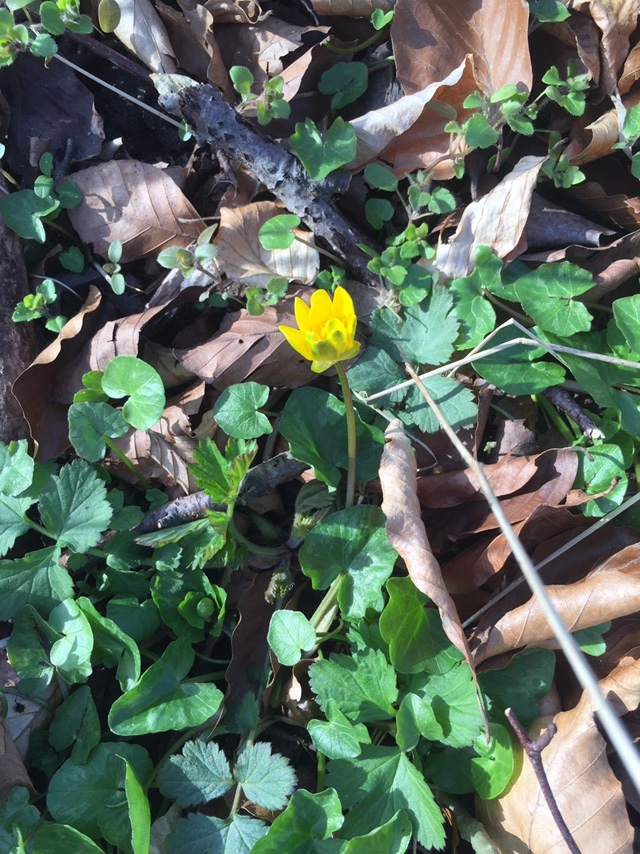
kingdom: Plantae
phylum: Tracheophyta
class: Magnoliopsida
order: Ranunculales
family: Ranunculaceae
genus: Ficaria
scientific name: Ficaria verna
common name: Lesser celandine
